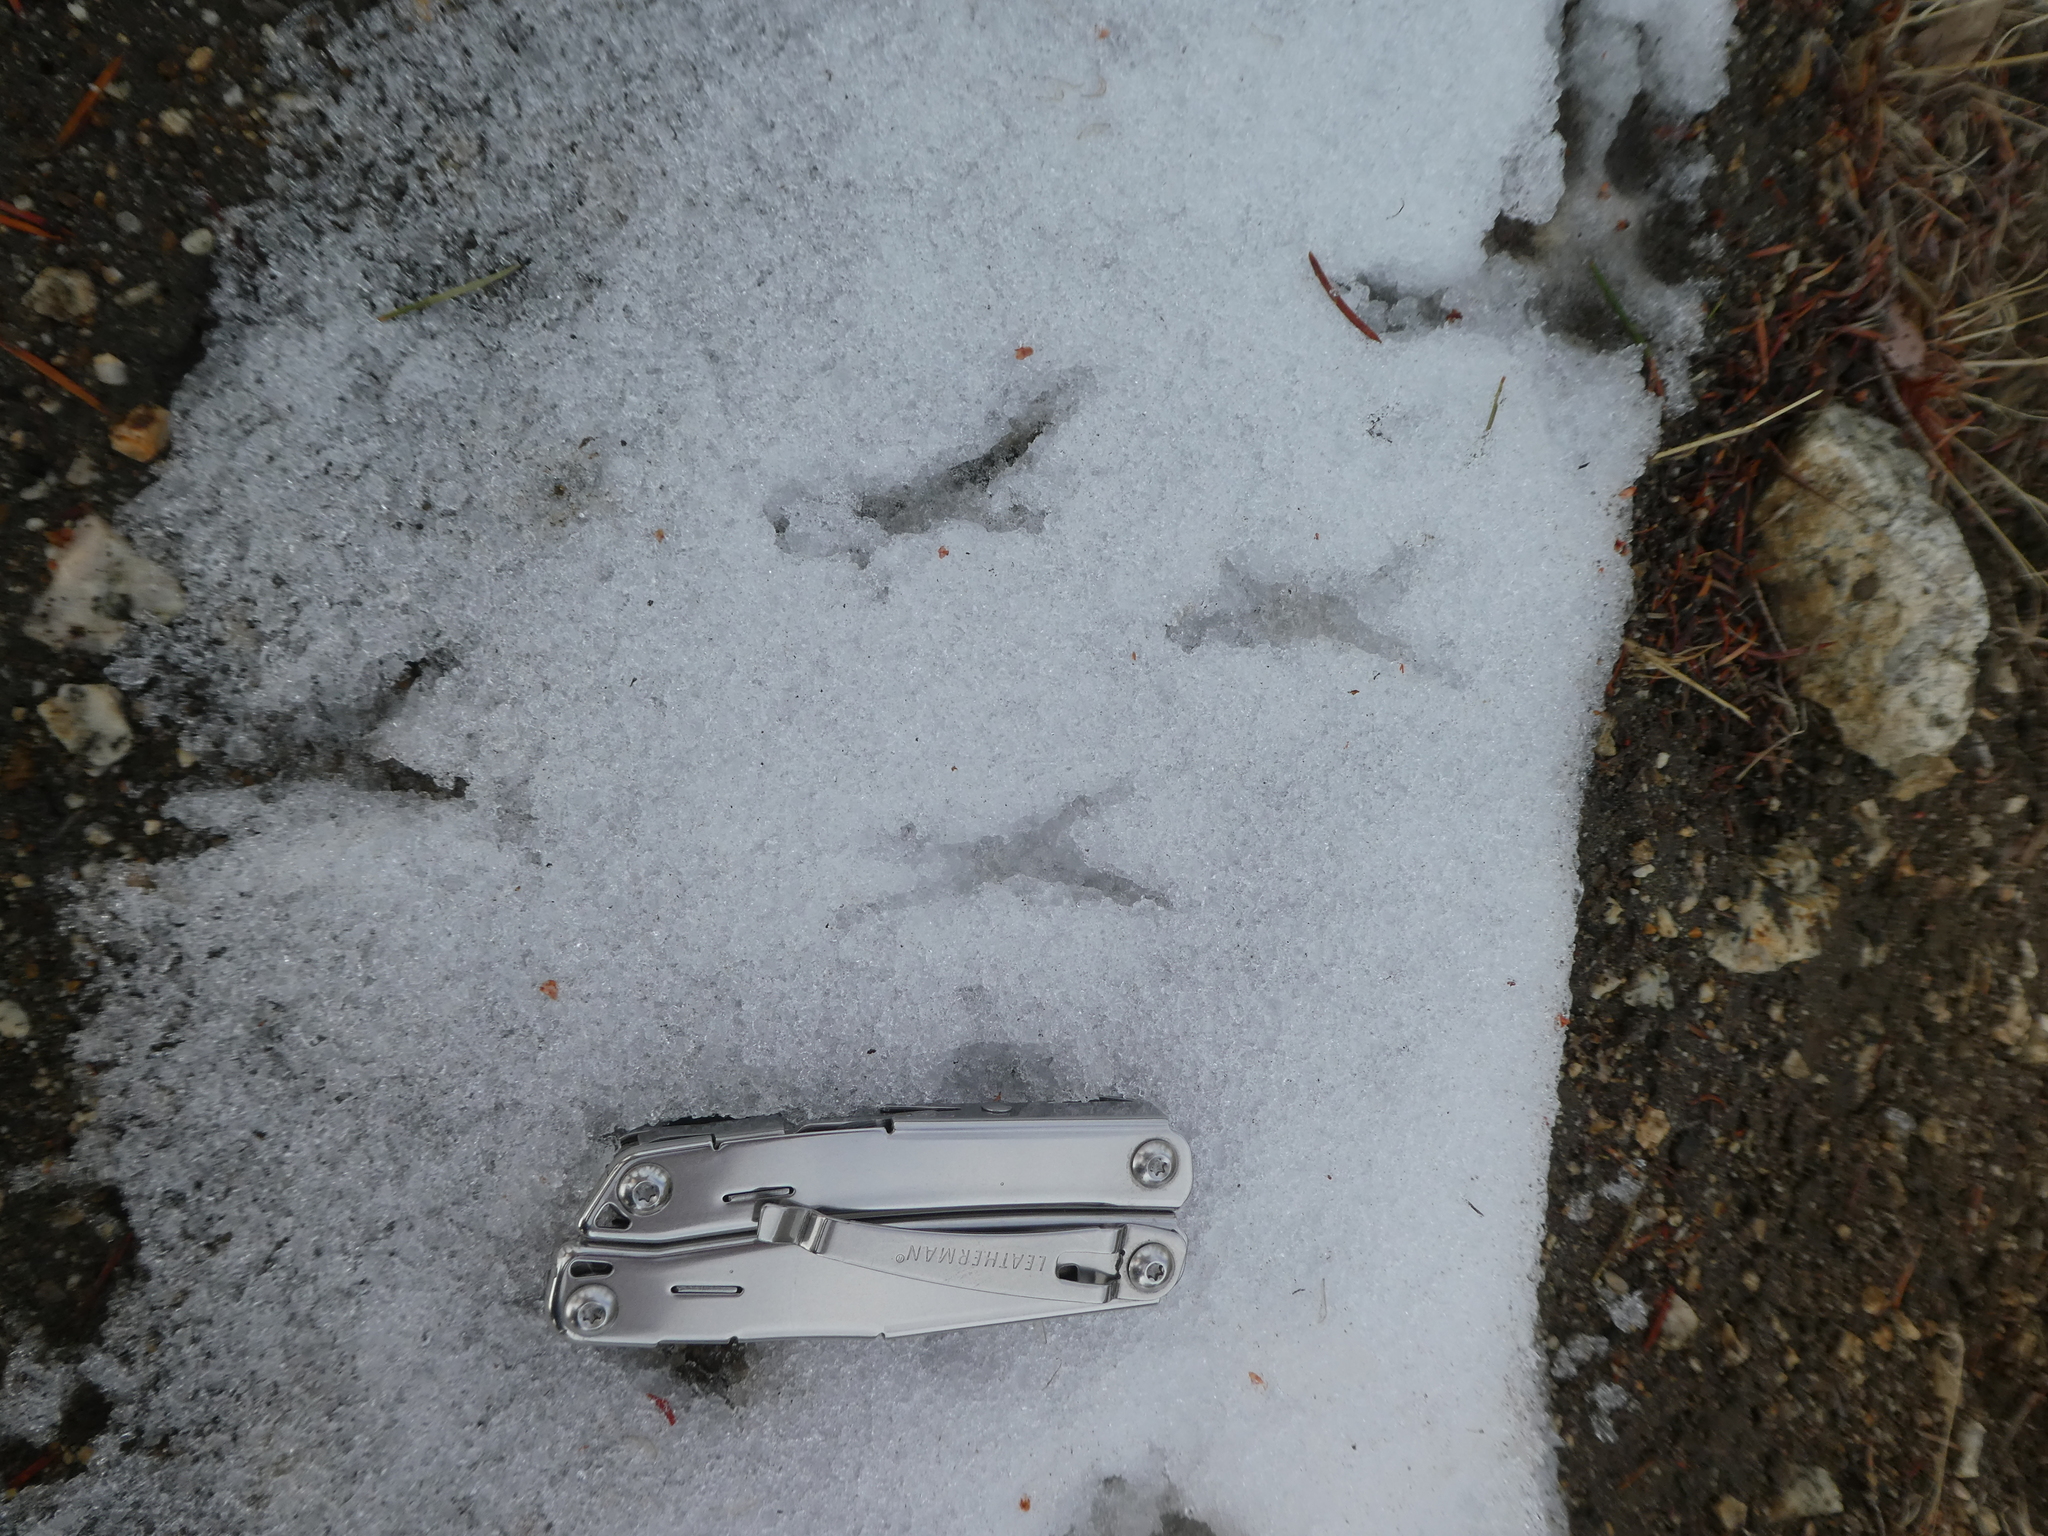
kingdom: Animalia
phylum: Chordata
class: Aves
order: Piciformes
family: Picidae
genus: Colaptes
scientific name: Colaptes auratus
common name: Northern flicker
